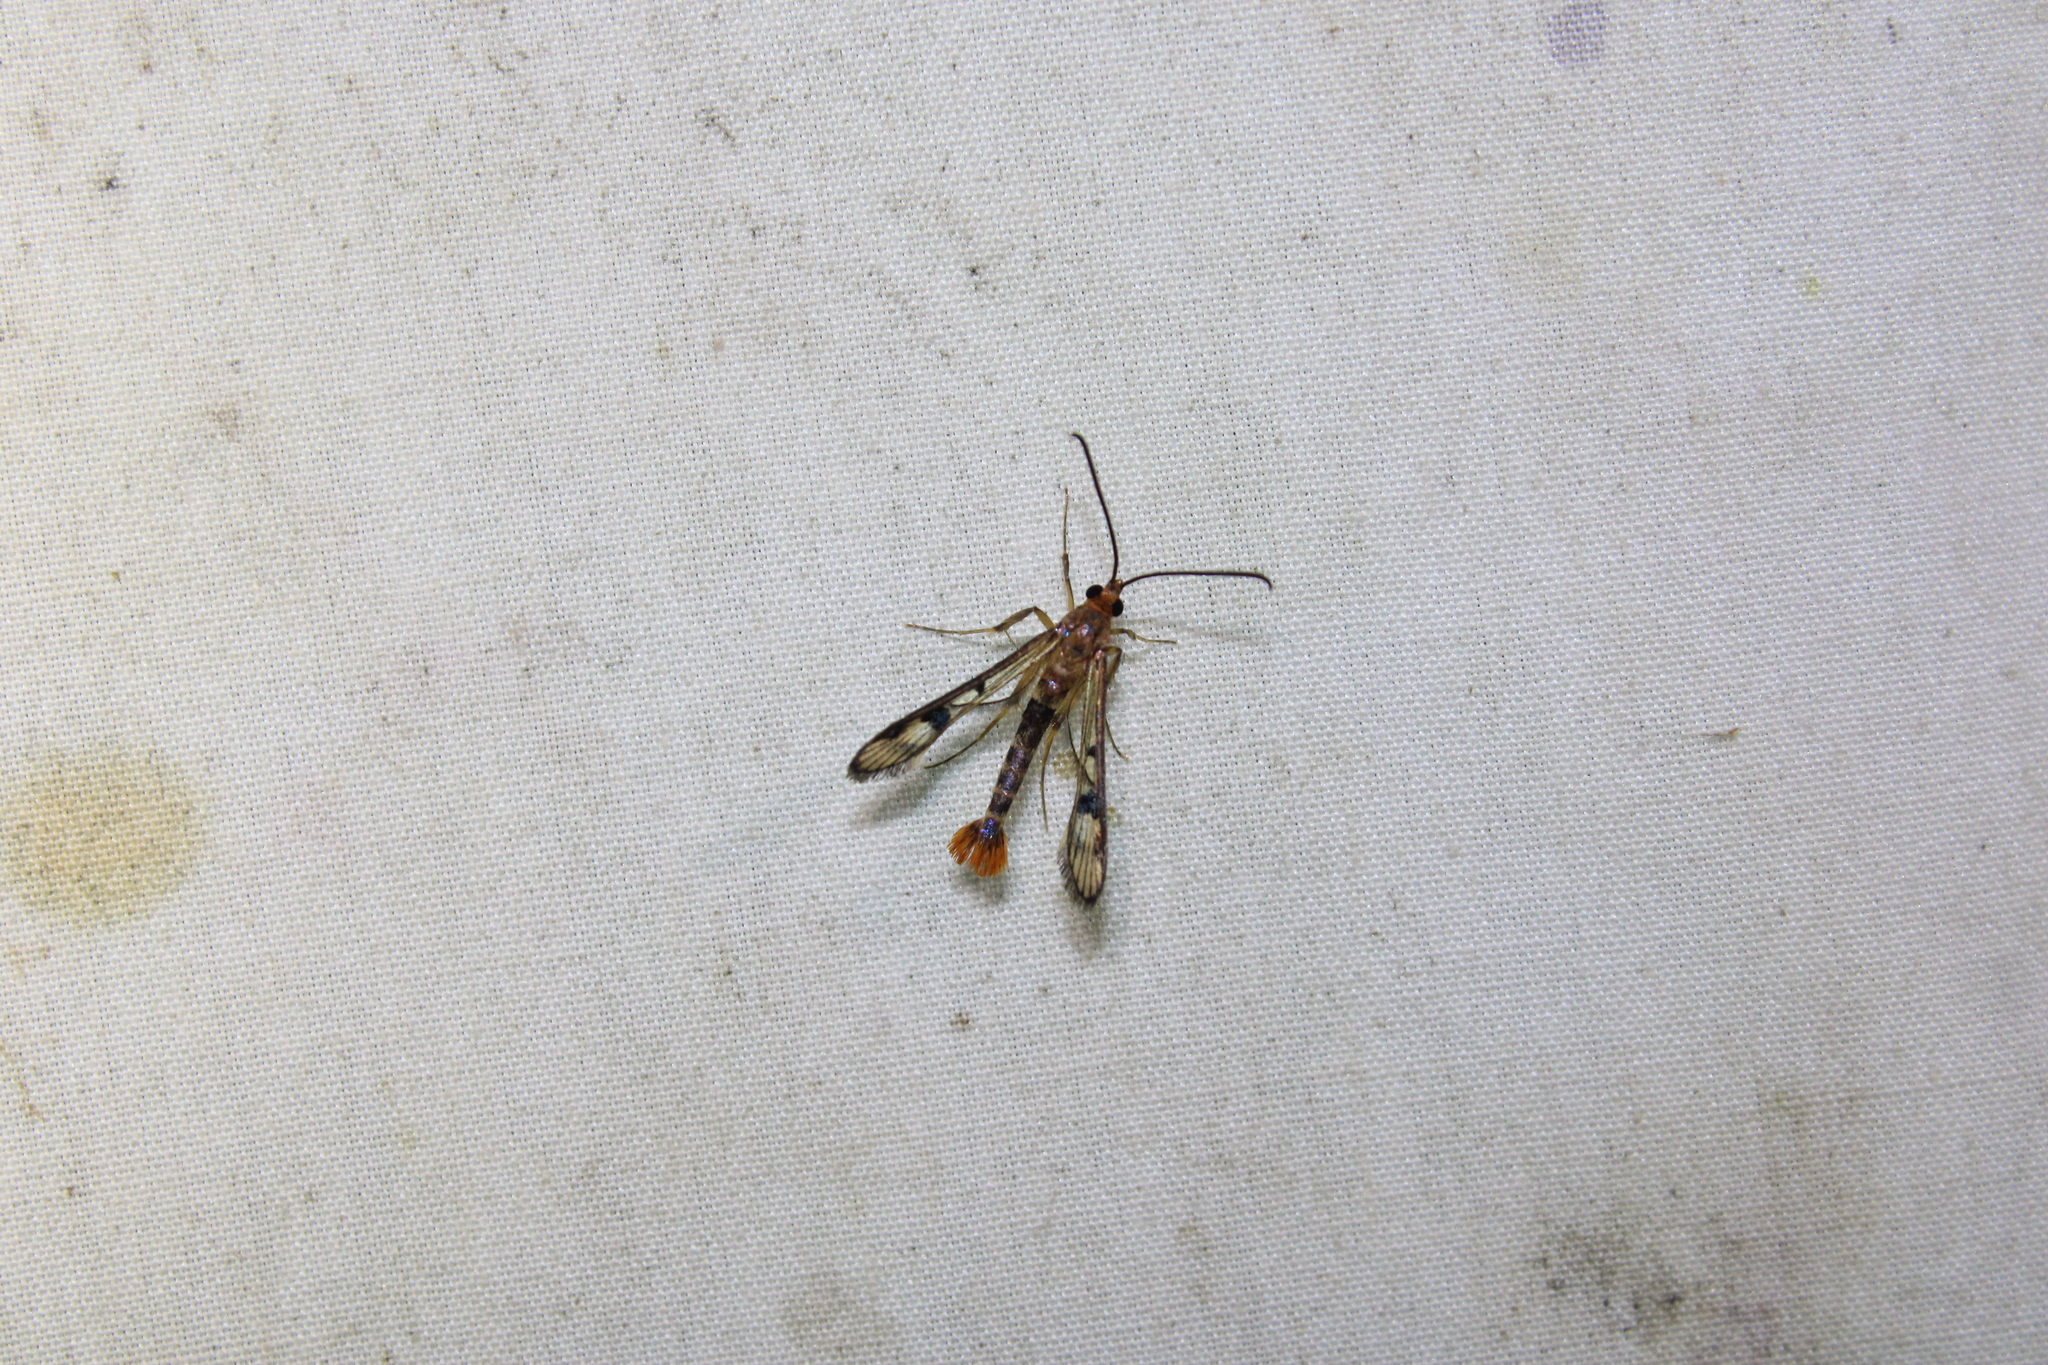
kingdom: Animalia
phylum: Arthropoda
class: Insecta
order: Lepidoptera
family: Sesiidae
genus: Synanthedon
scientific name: Synanthedon acerni
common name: Maple callus borer moth
